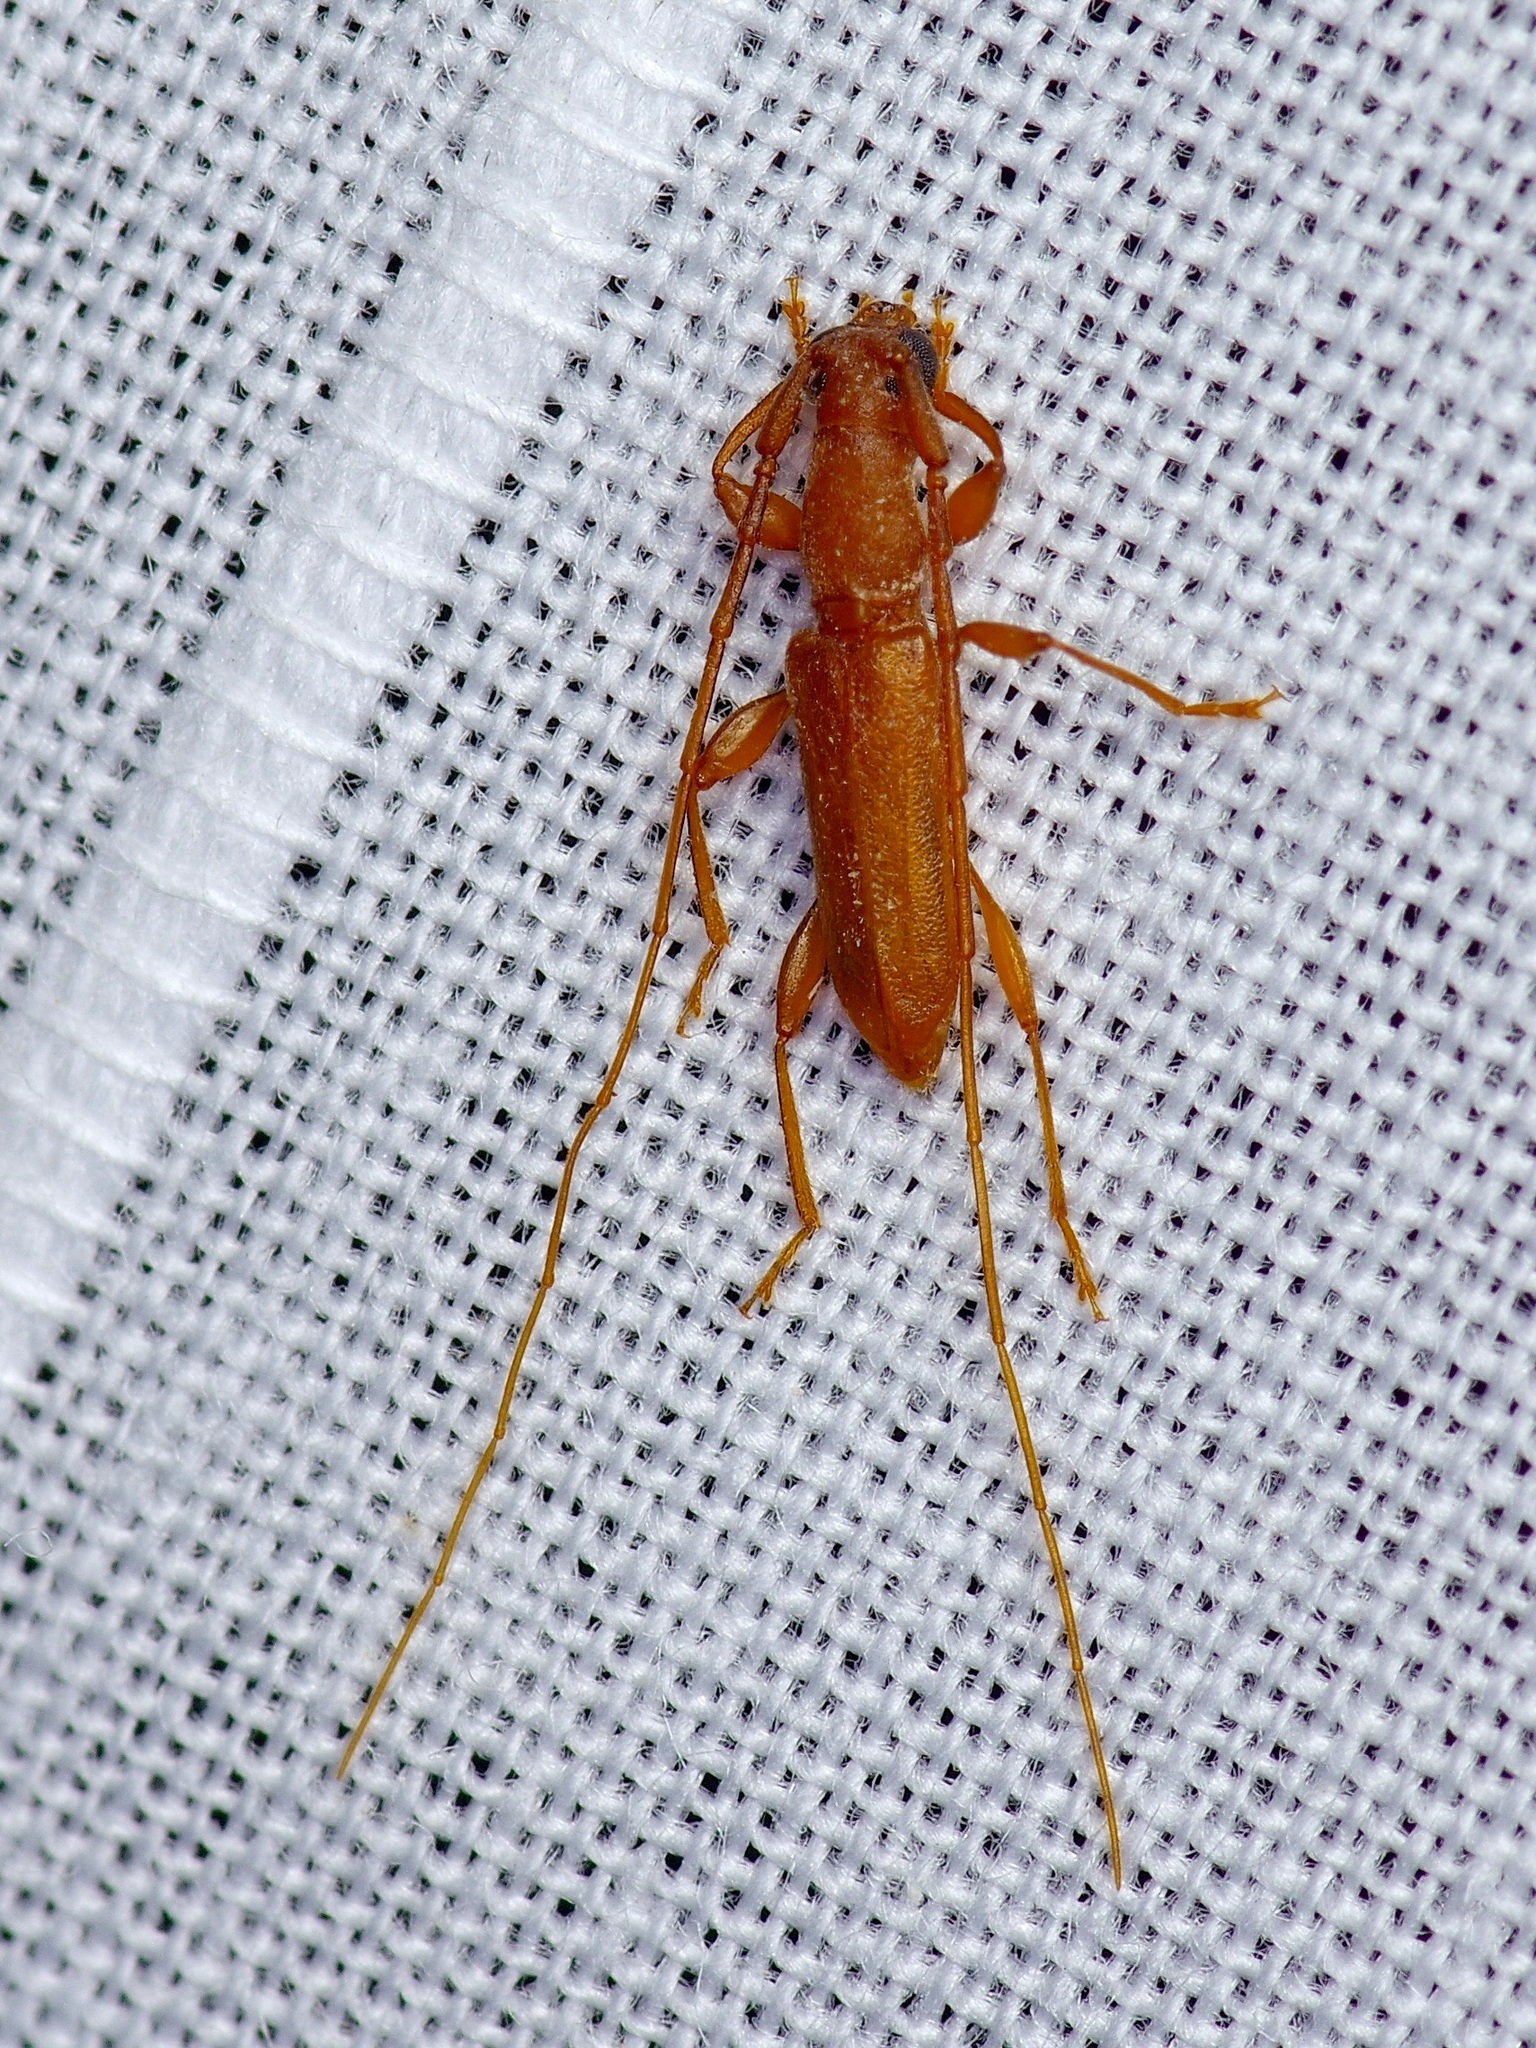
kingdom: Animalia
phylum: Arthropoda
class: Insecta
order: Coleoptera
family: Cerambycidae
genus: Hypexilis
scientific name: Hypexilis pallida
